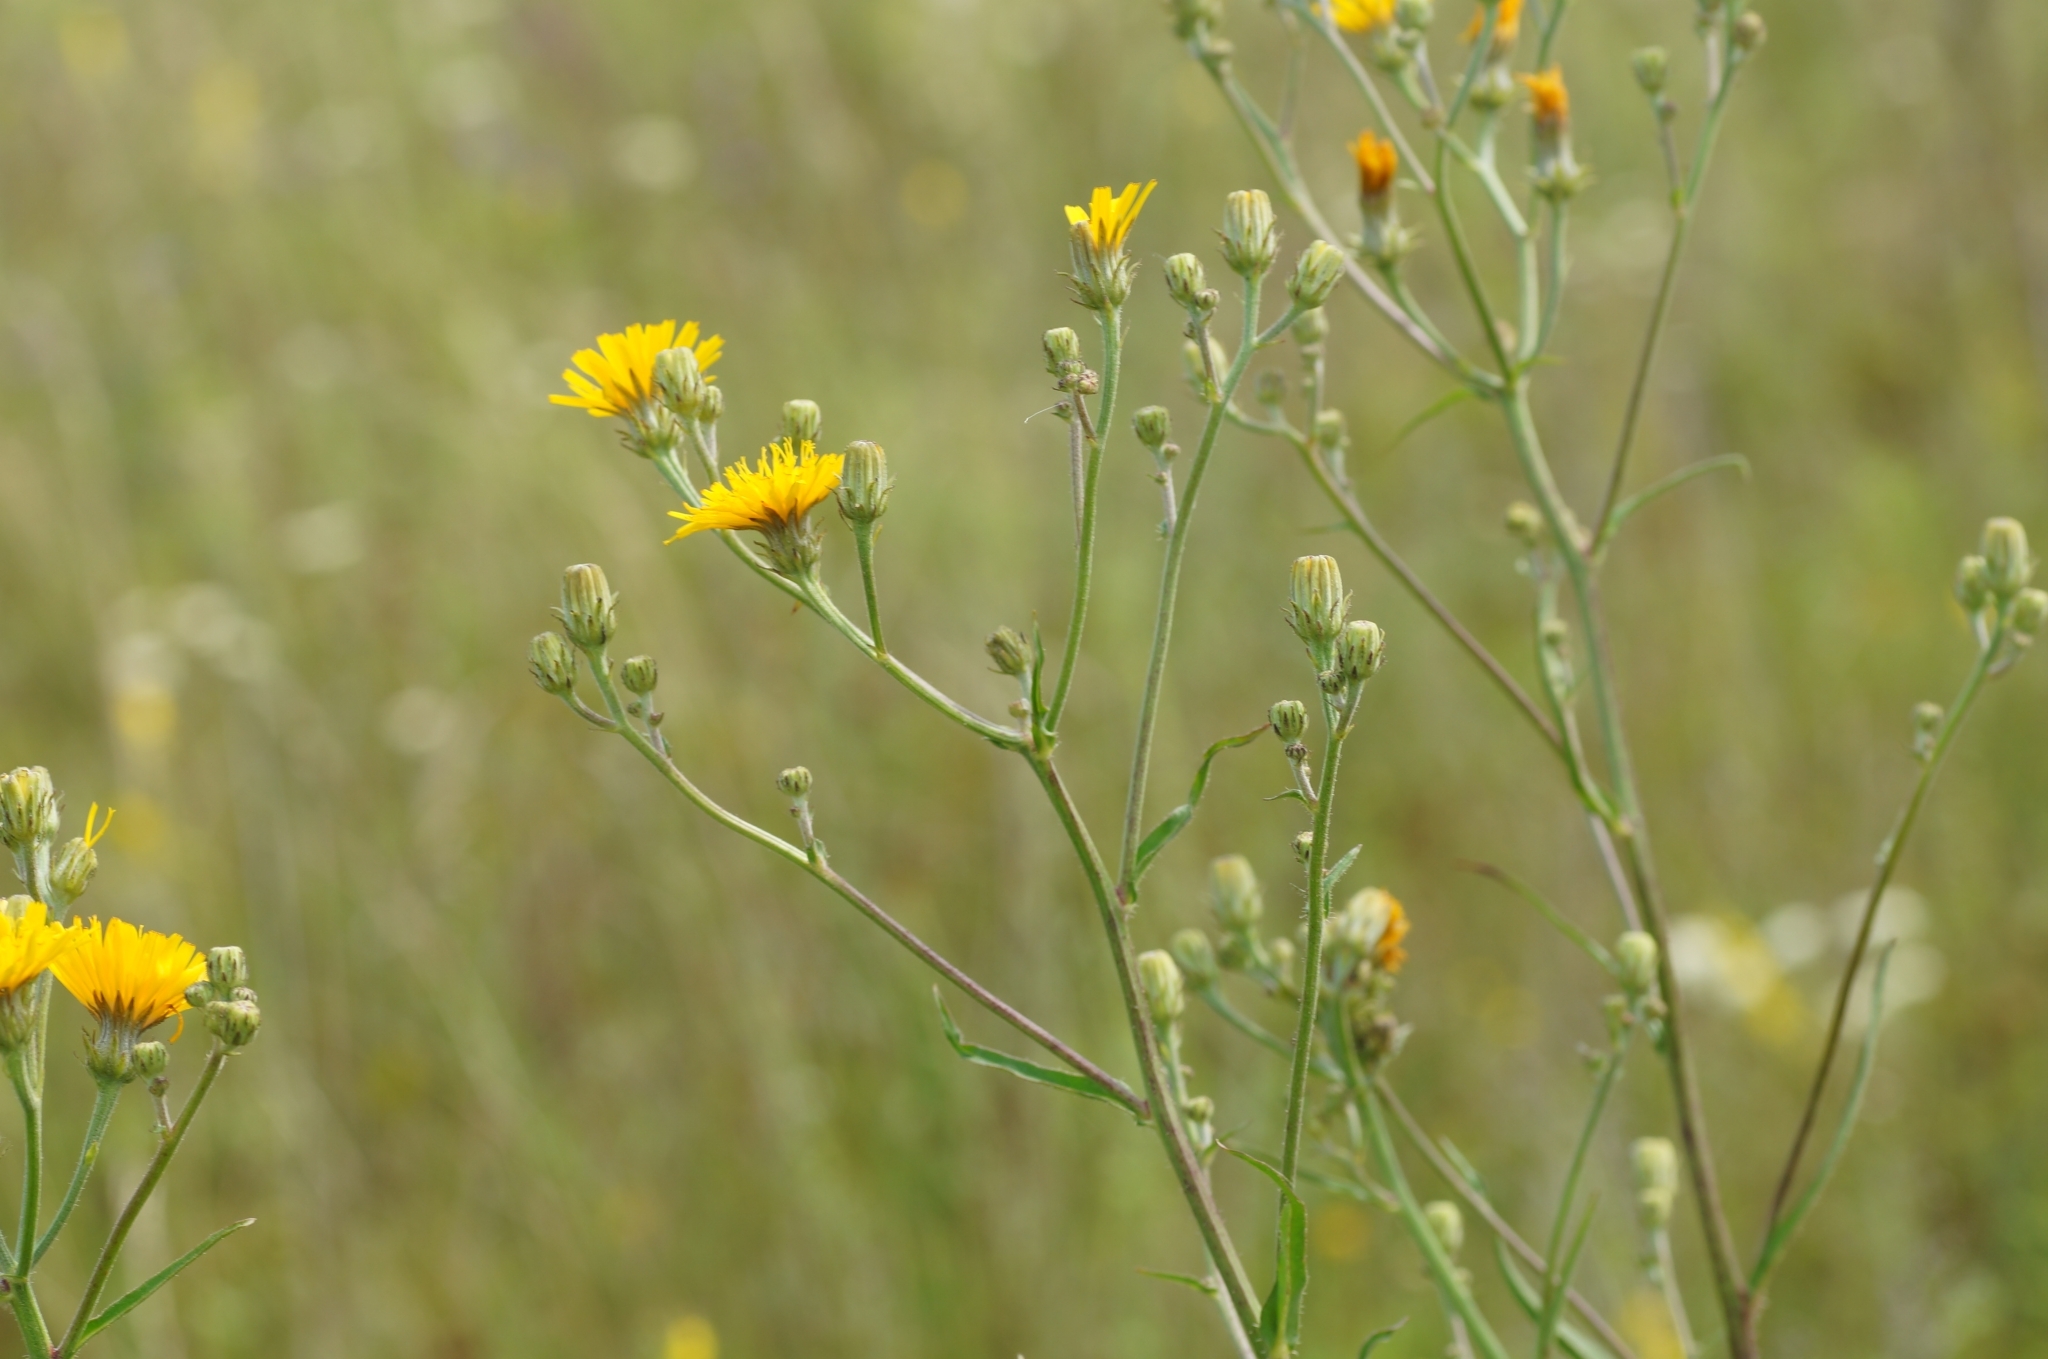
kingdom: Plantae
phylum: Tracheophyta
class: Magnoliopsida
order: Asterales
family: Asteraceae
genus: Picris
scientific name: Picris hieracioides
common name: Hawkweed oxtongue
